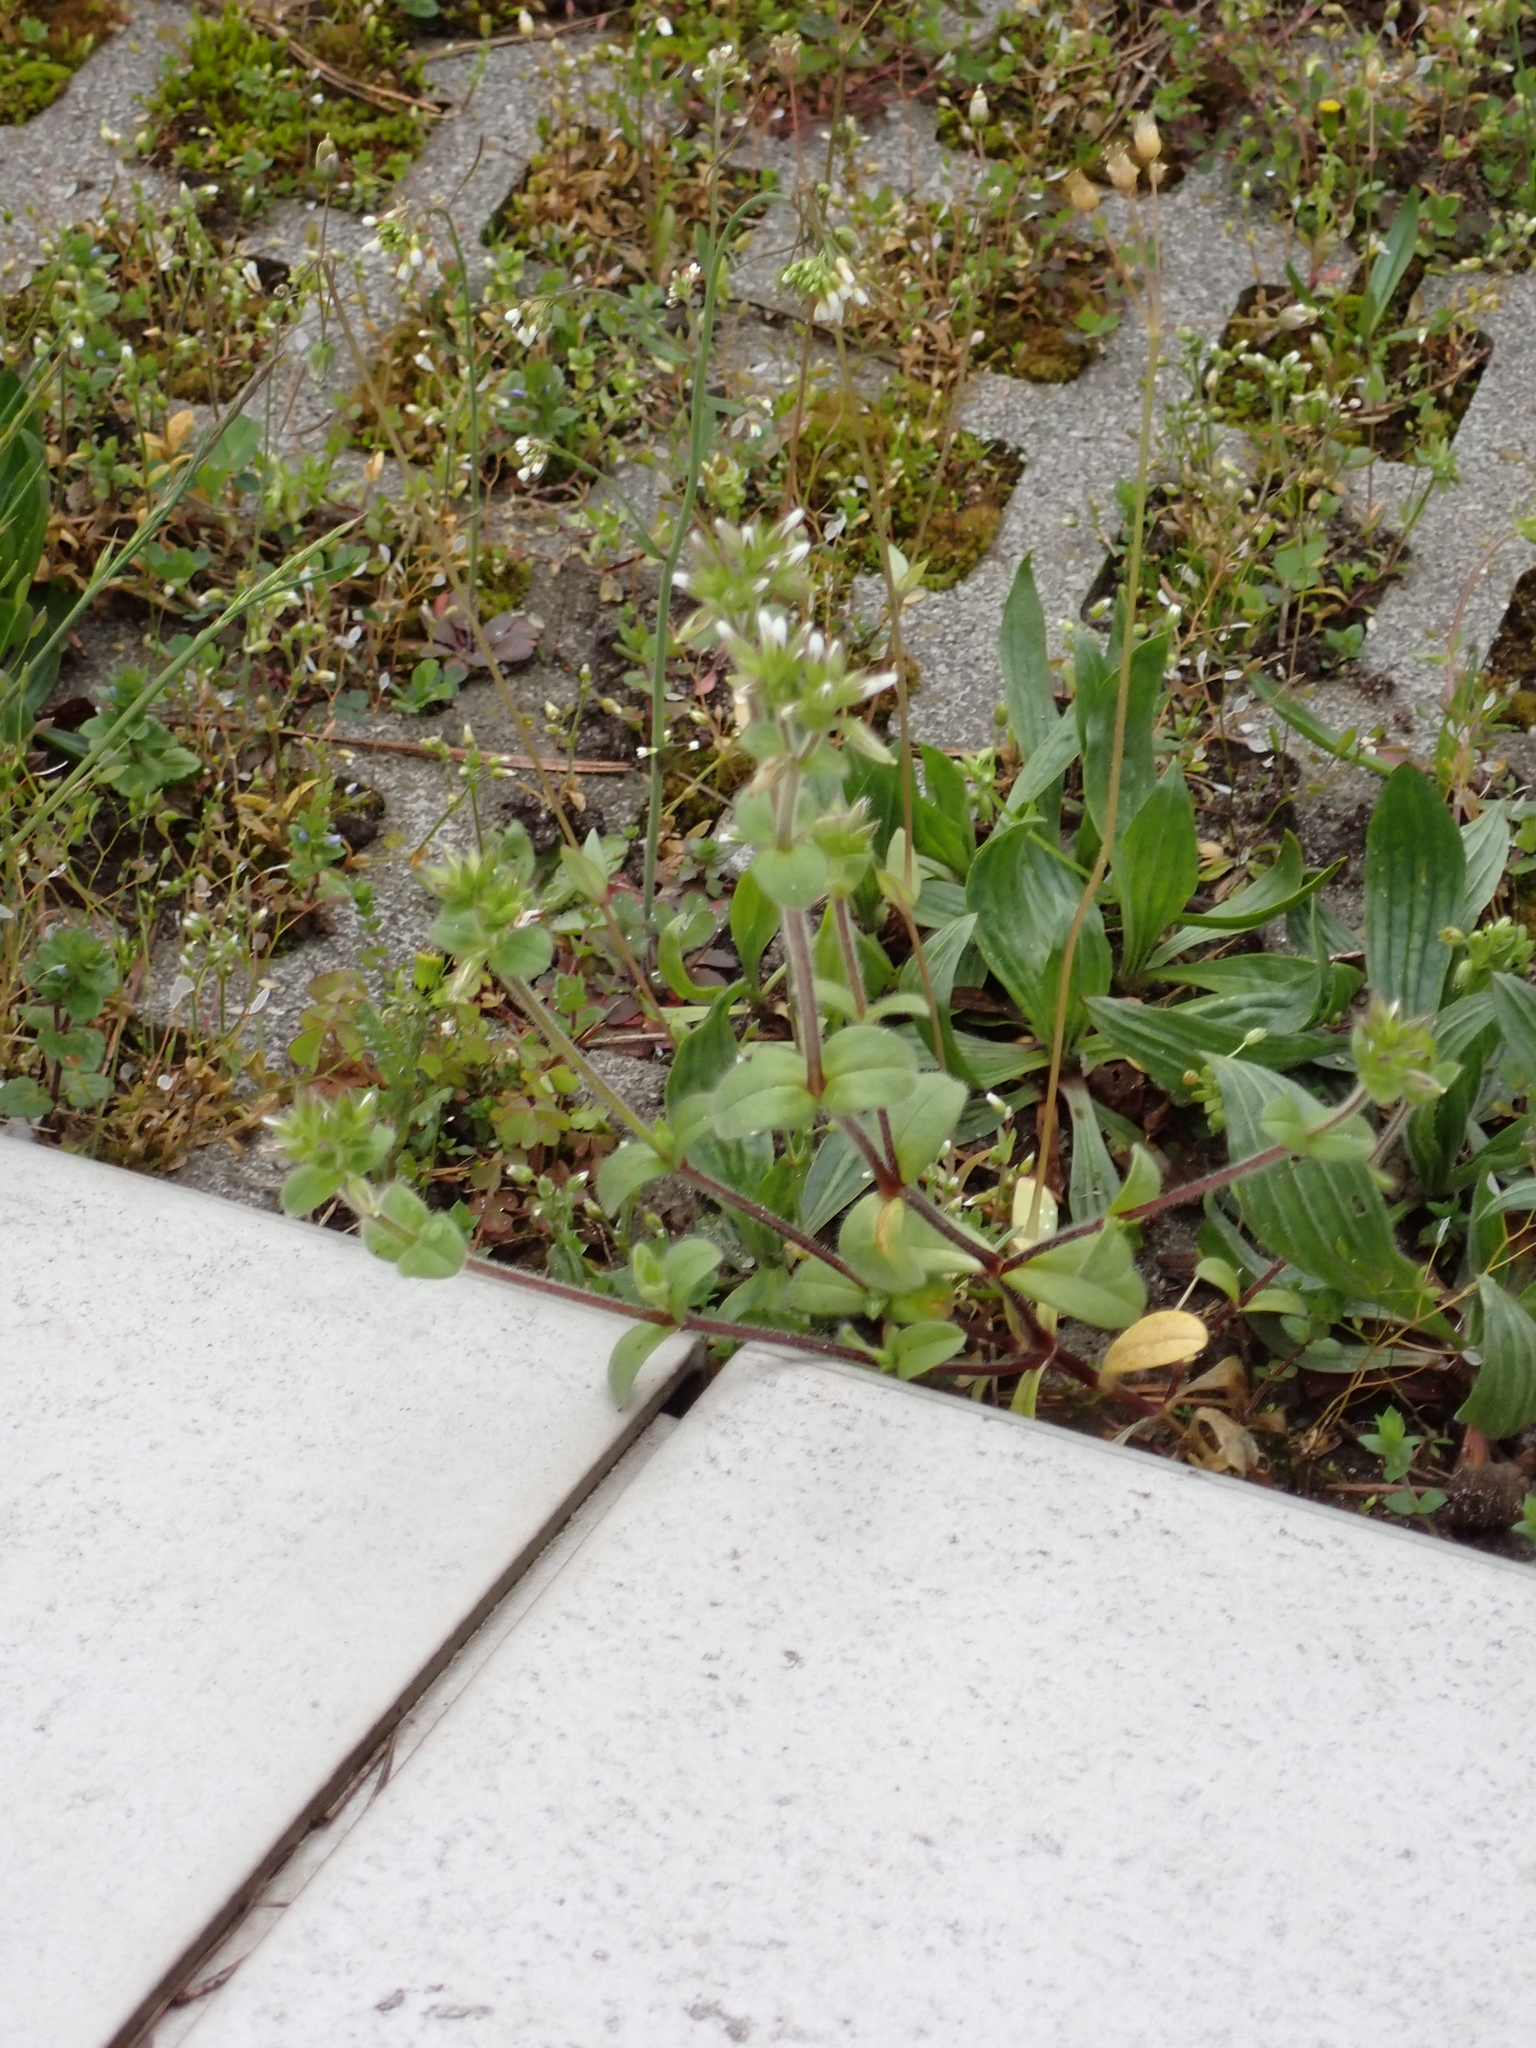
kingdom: Plantae
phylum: Tracheophyta
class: Magnoliopsida
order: Caryophyllales
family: Caryophyllaceae
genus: Cerastium
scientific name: Cerastium glomeratum
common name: Sticky chickweed
